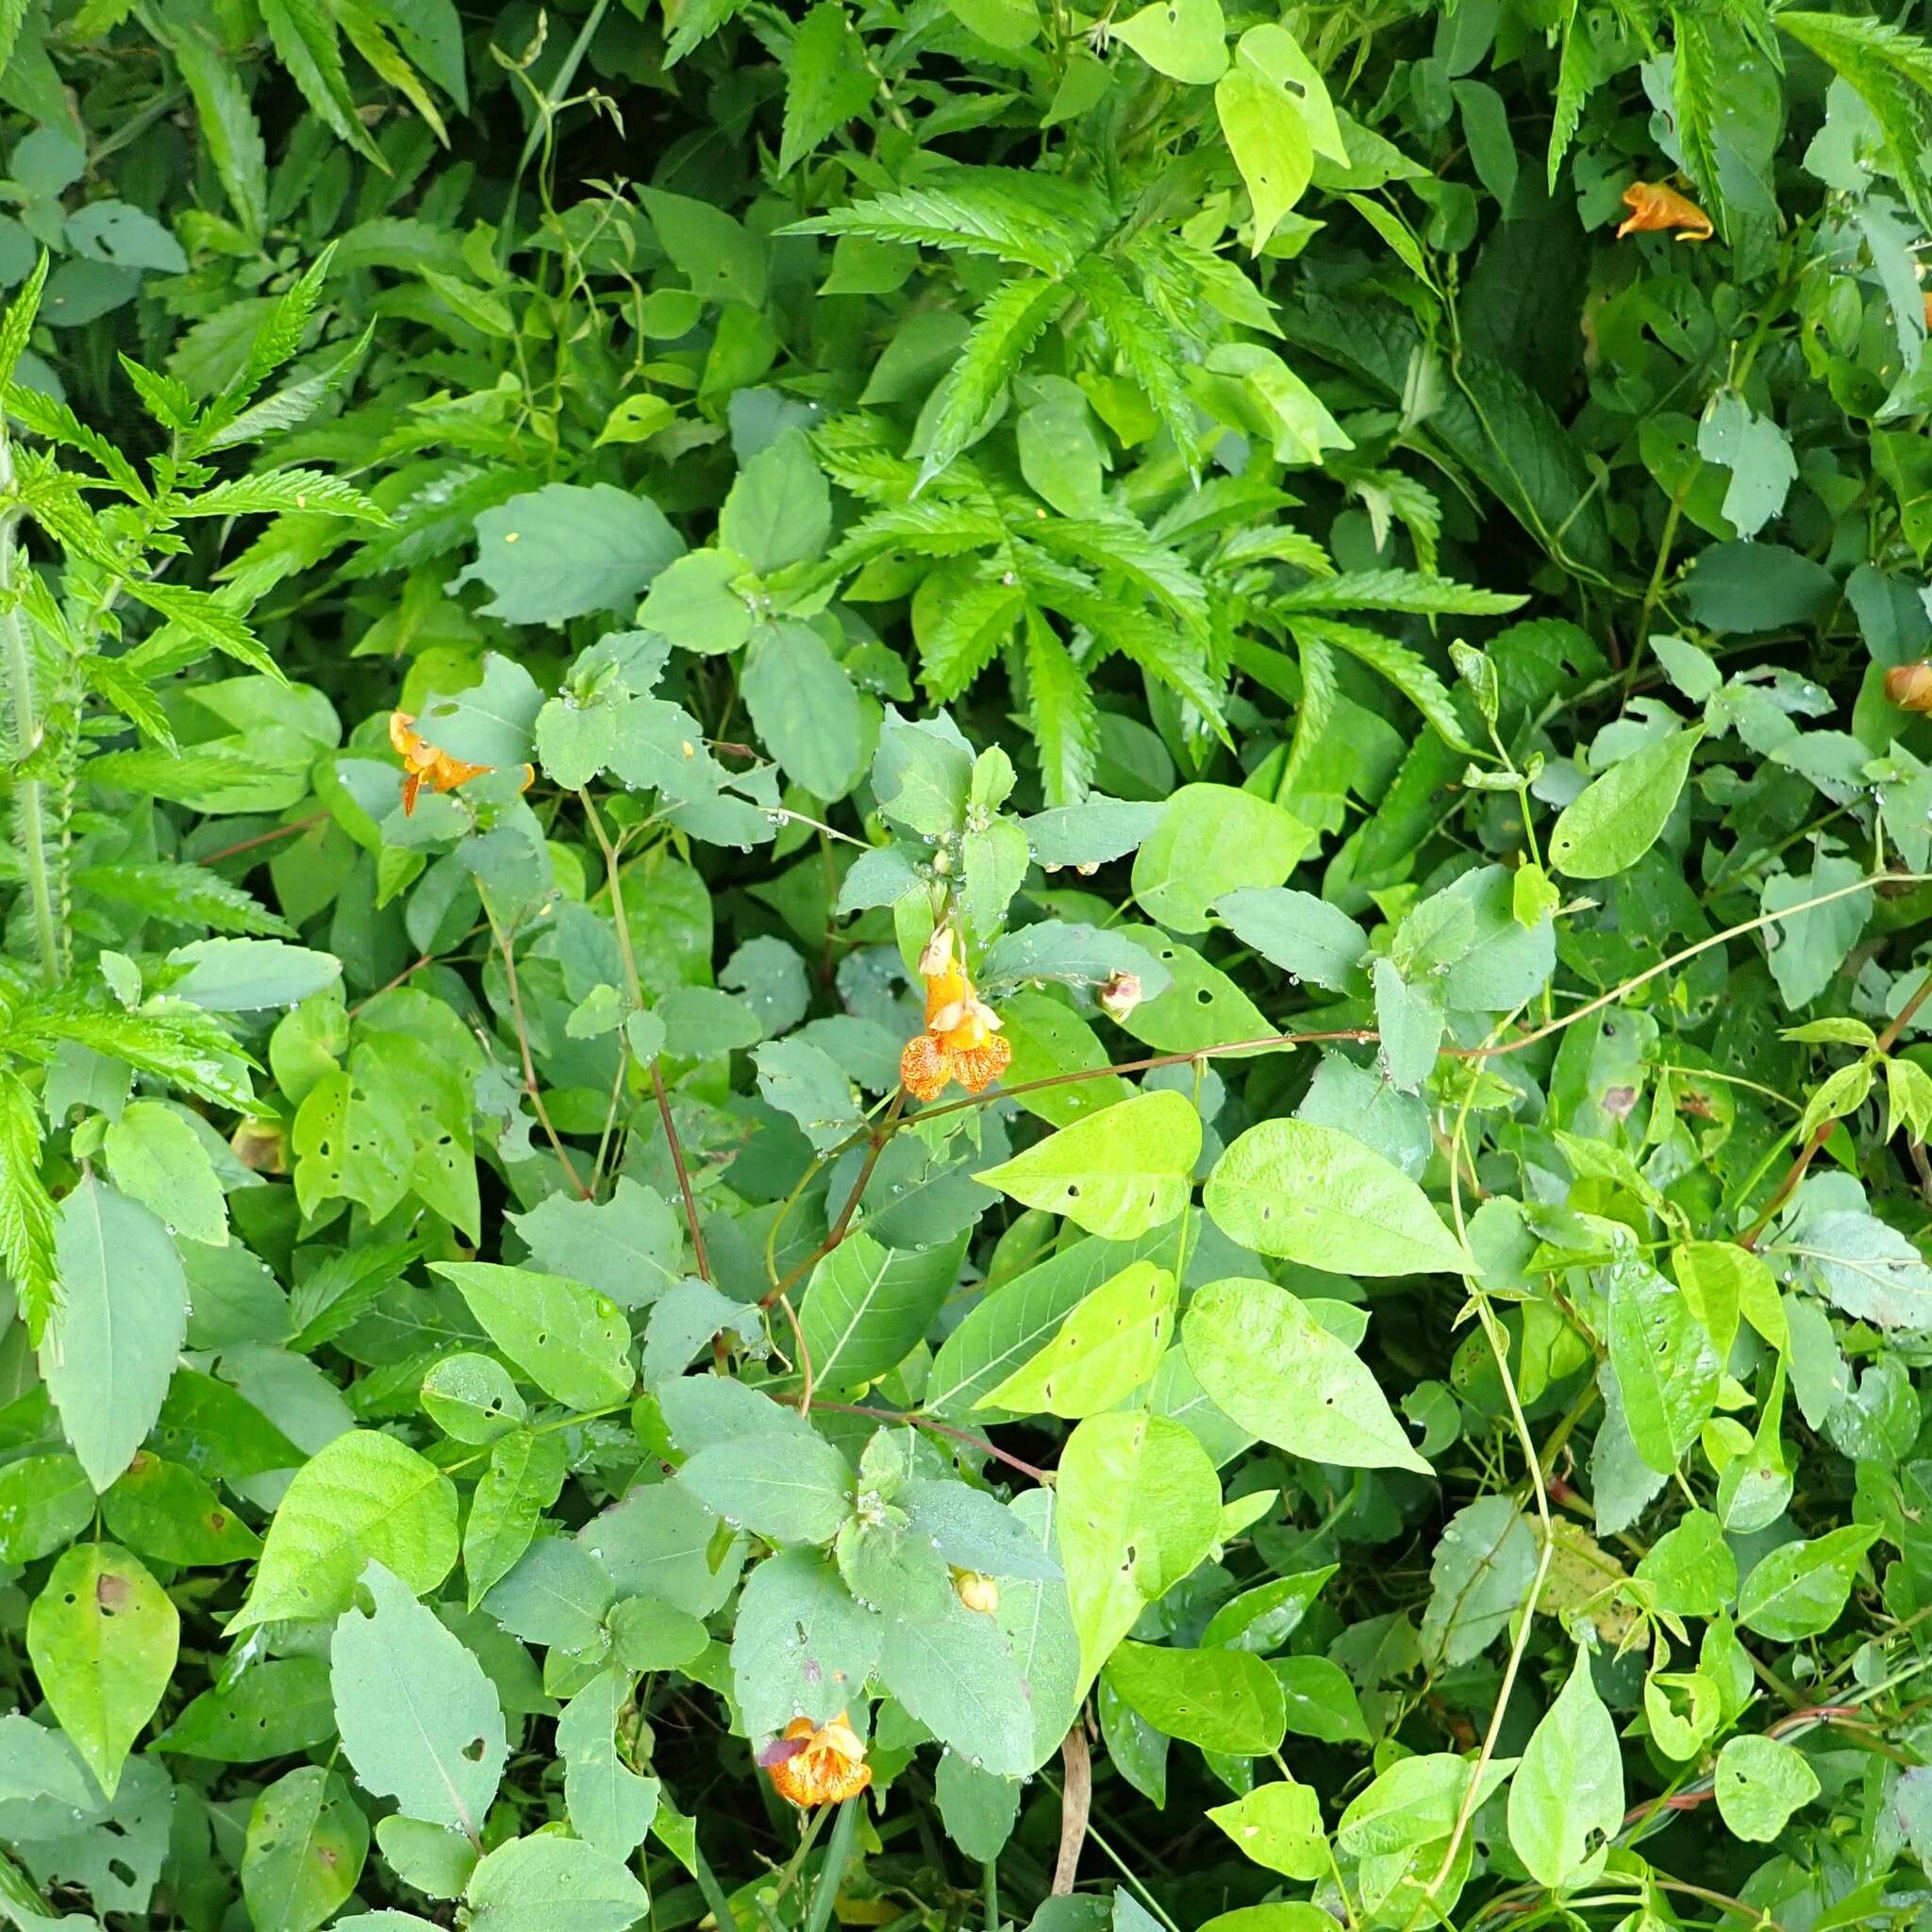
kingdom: Plantae
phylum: Tracheophyta
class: Magnoliopsida
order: Ericales
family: Balsaminaceae
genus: Impatiens
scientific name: Impatiens capensis
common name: Orange balsam
